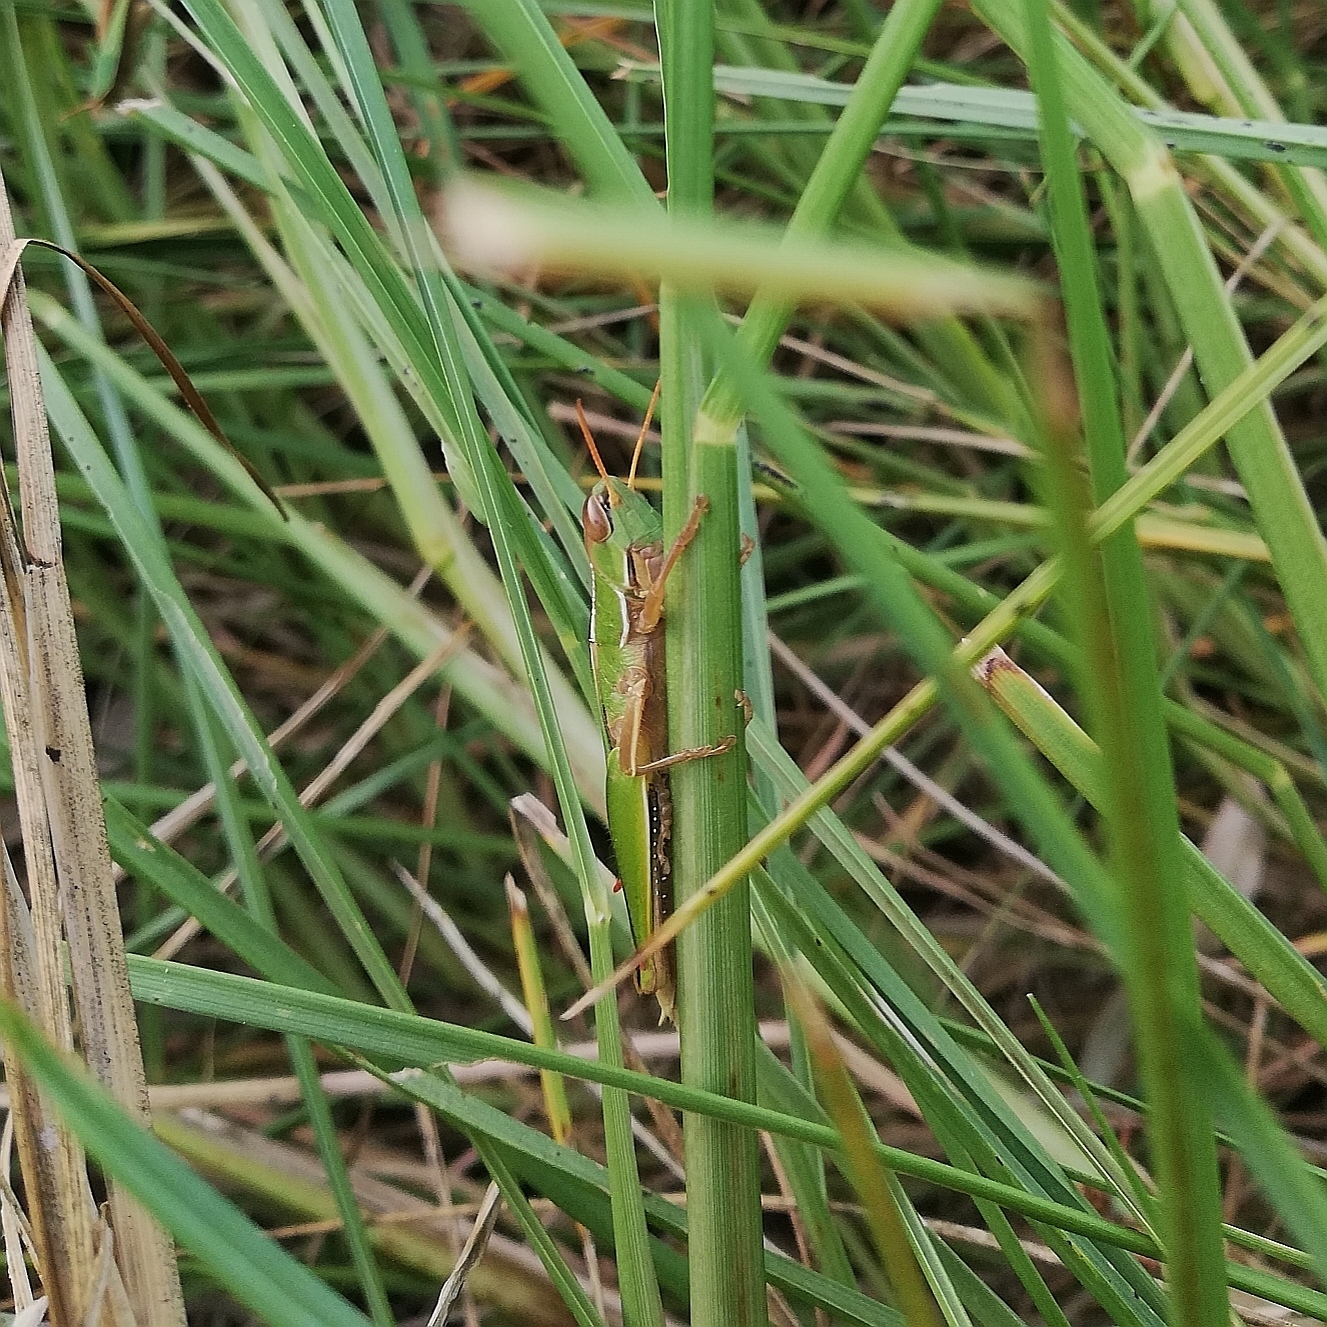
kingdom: Animalia
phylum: Arthropoda
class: Insecta
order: Orthoptera
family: Acrididae
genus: Aleuas
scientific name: Aleuas lineatus
